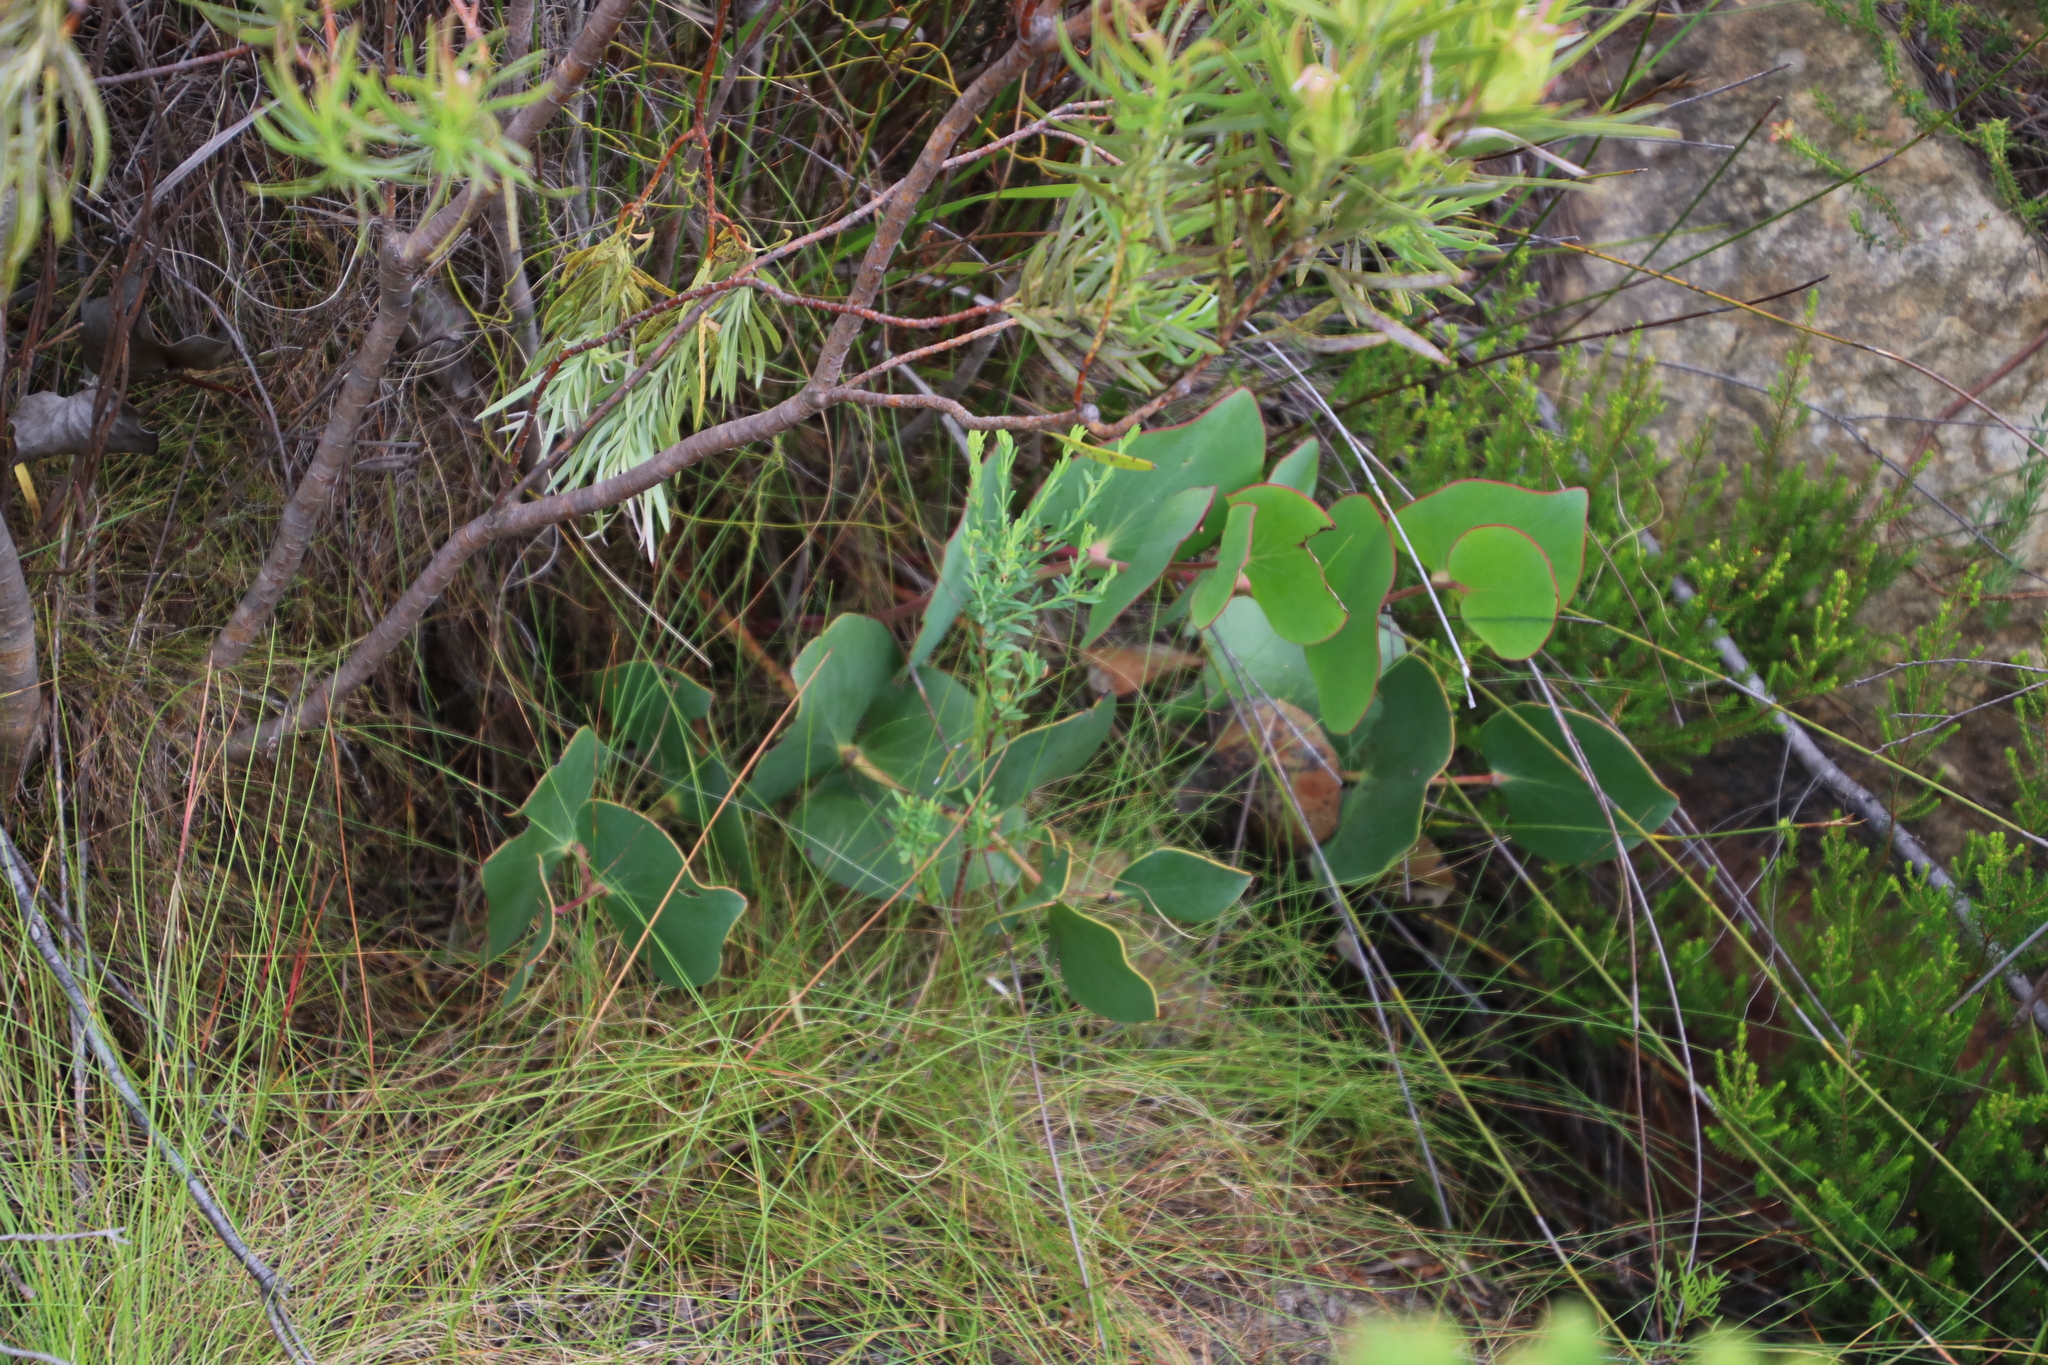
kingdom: Plantae
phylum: Tracheophyta
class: Magnoliopsida
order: Proteales
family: Proteaceae
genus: Protea
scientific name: Protea cordata
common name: Heart-leaf sugarbush
